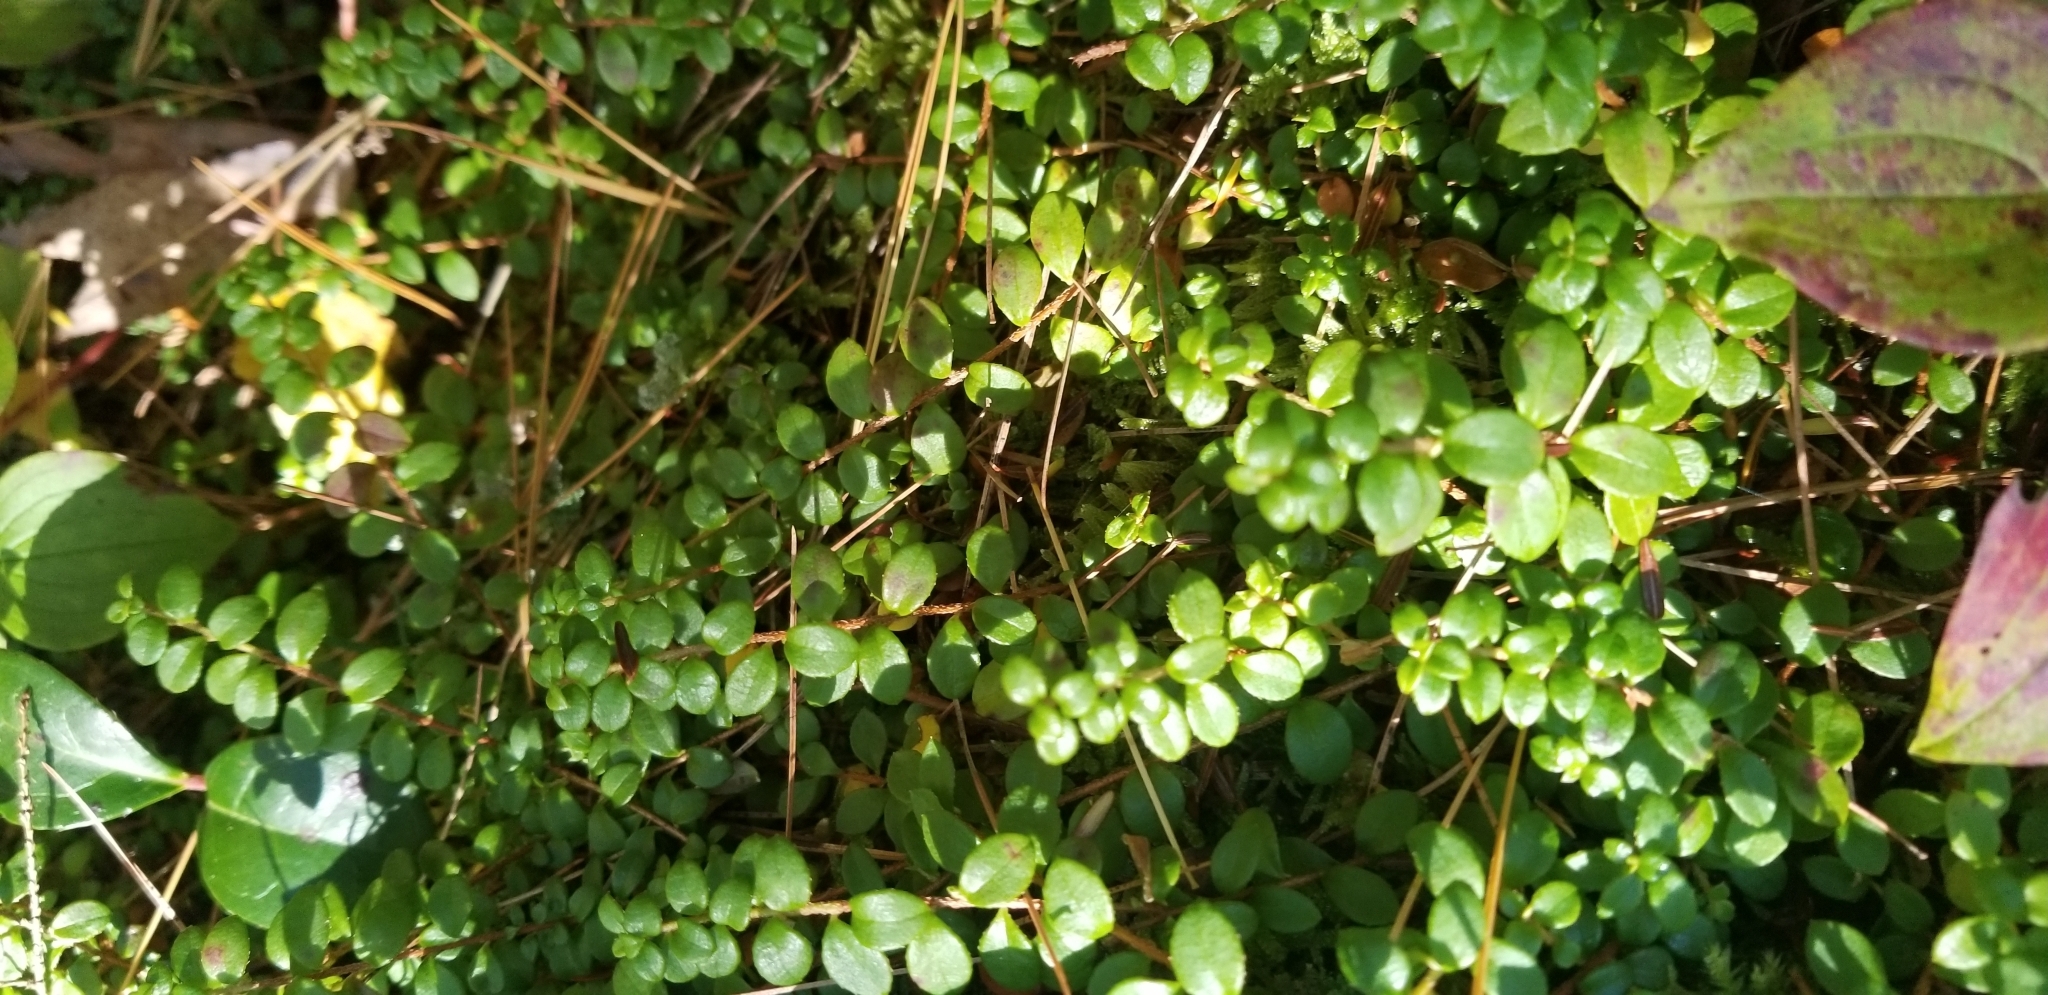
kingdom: Plantae
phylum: Tracheophyta
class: Magnoliopsida
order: Ericales
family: Ericaceae
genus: Gaultheria
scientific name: Gaultheria hispidula
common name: Cancer wintergreen
